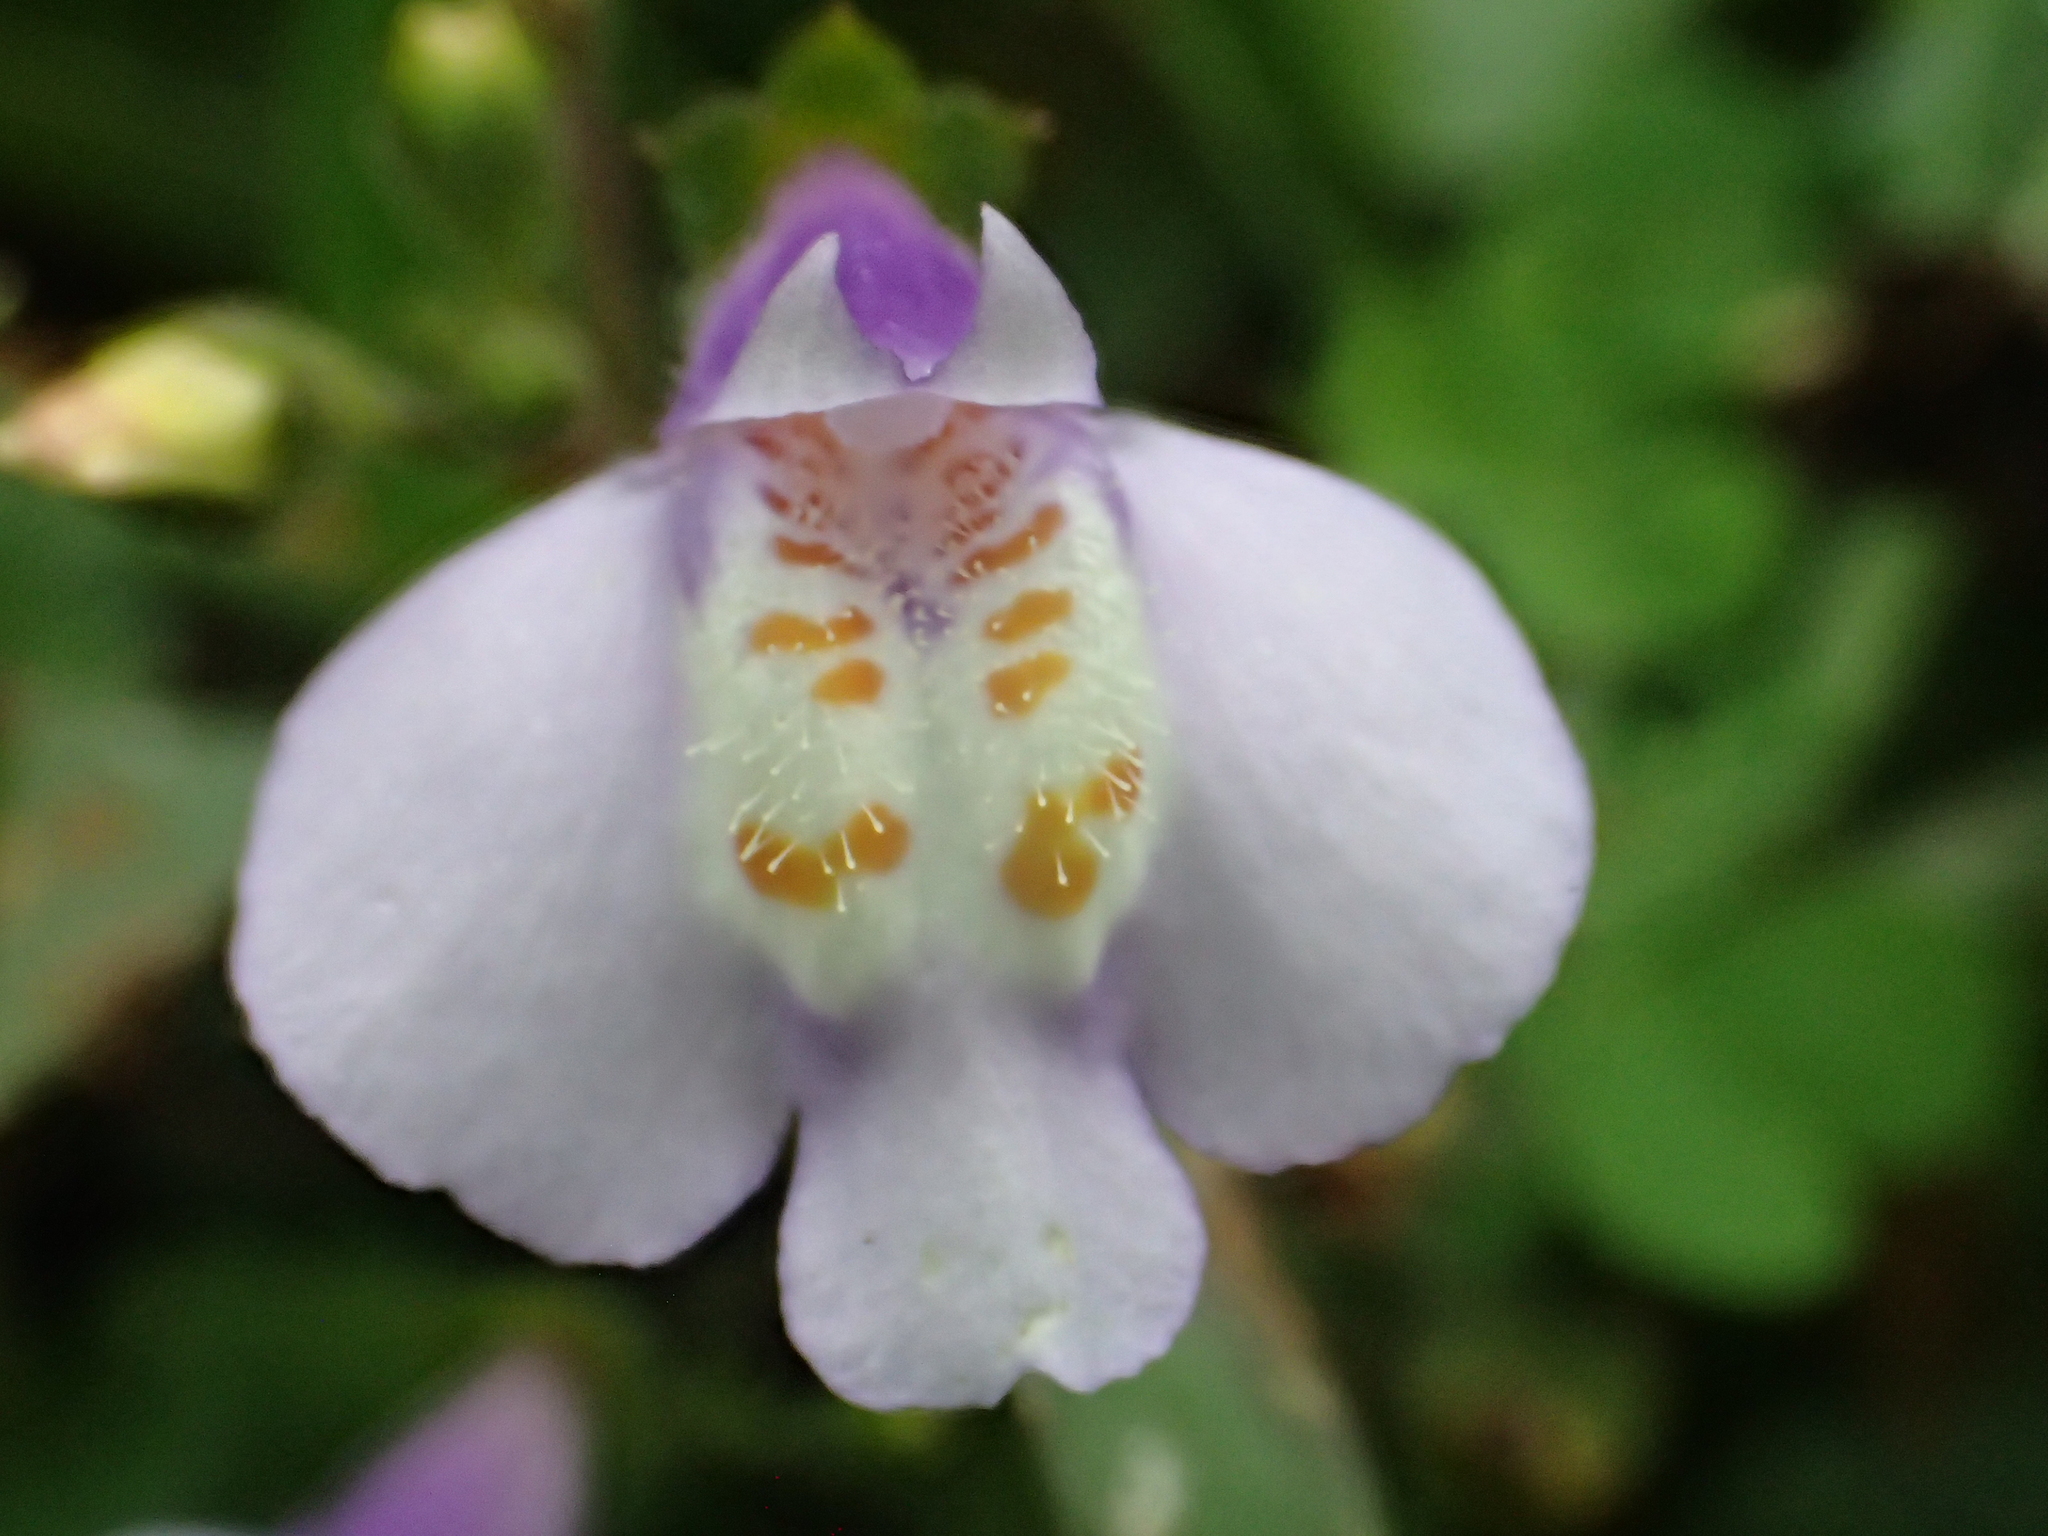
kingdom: Plantae
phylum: Tracheophyta
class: Magnoliopsida
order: Lamiales
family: Mazaceae
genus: Mazus
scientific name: Mazus fauriei
